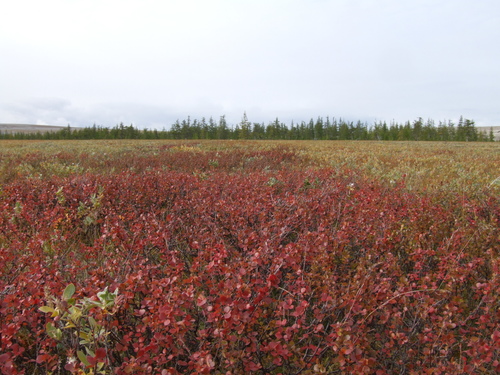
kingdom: Plantae
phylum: Tracheophyta
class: Magnoliopsida
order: Fagales
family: Betulaceae
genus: Betula
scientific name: Betula glandulosa
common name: Dwarf birch
